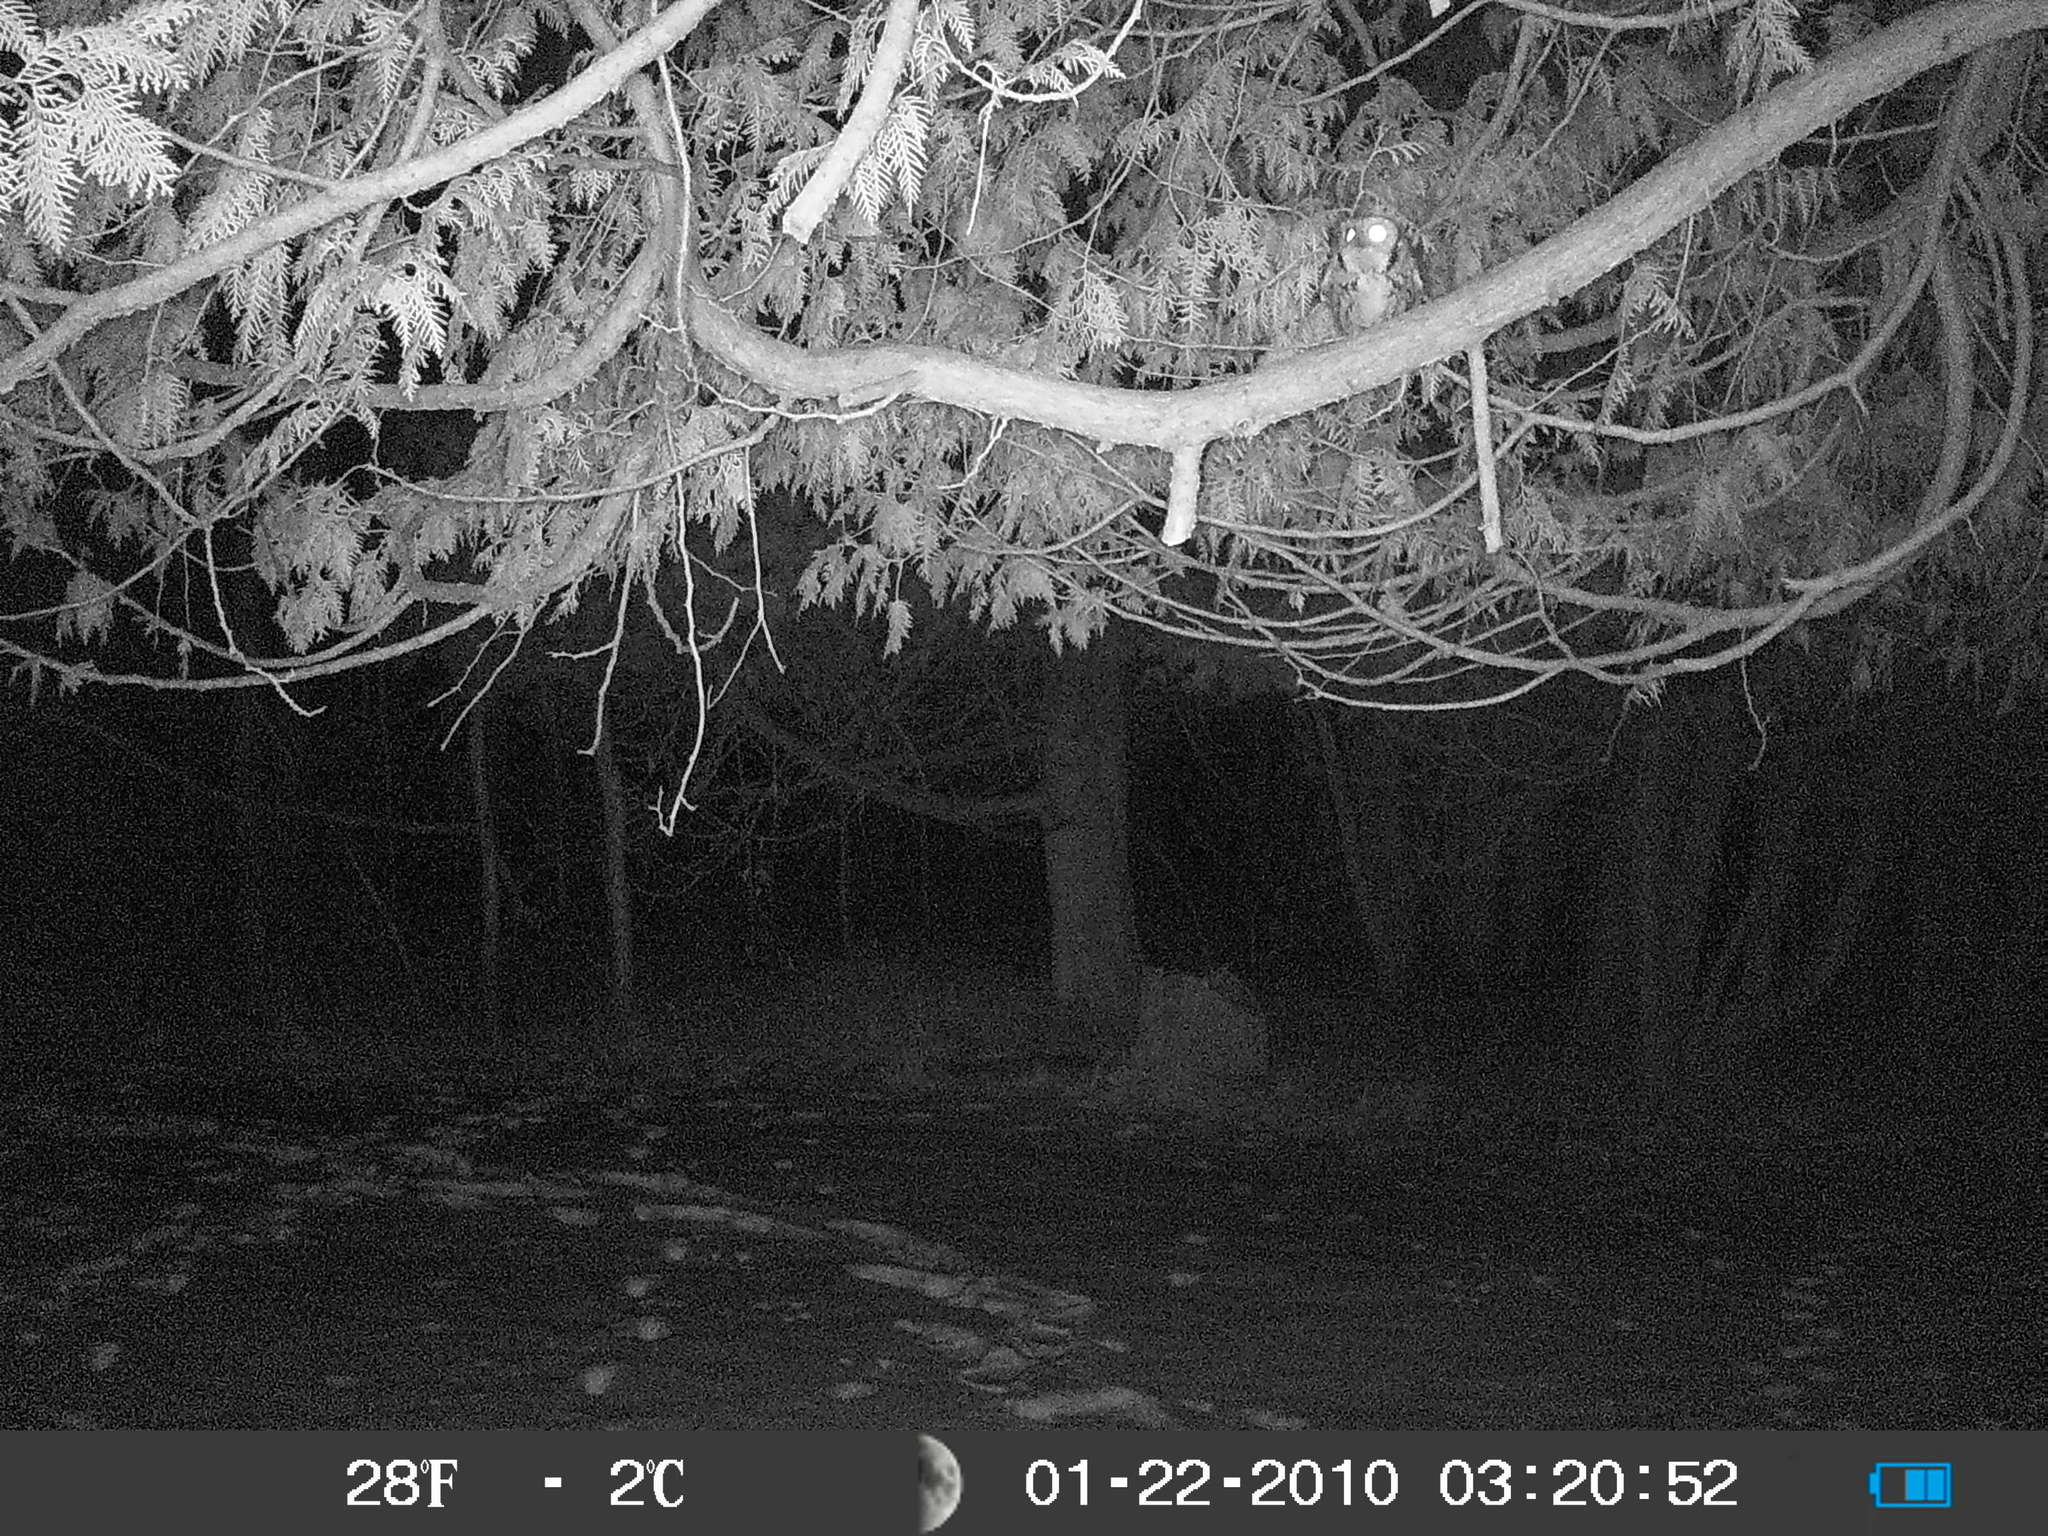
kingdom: Animalia
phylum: Chordata
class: Aves
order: Strigiformes
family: Strigidae
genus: Megascops
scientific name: Megascops asio
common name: Eastern screech-owl
